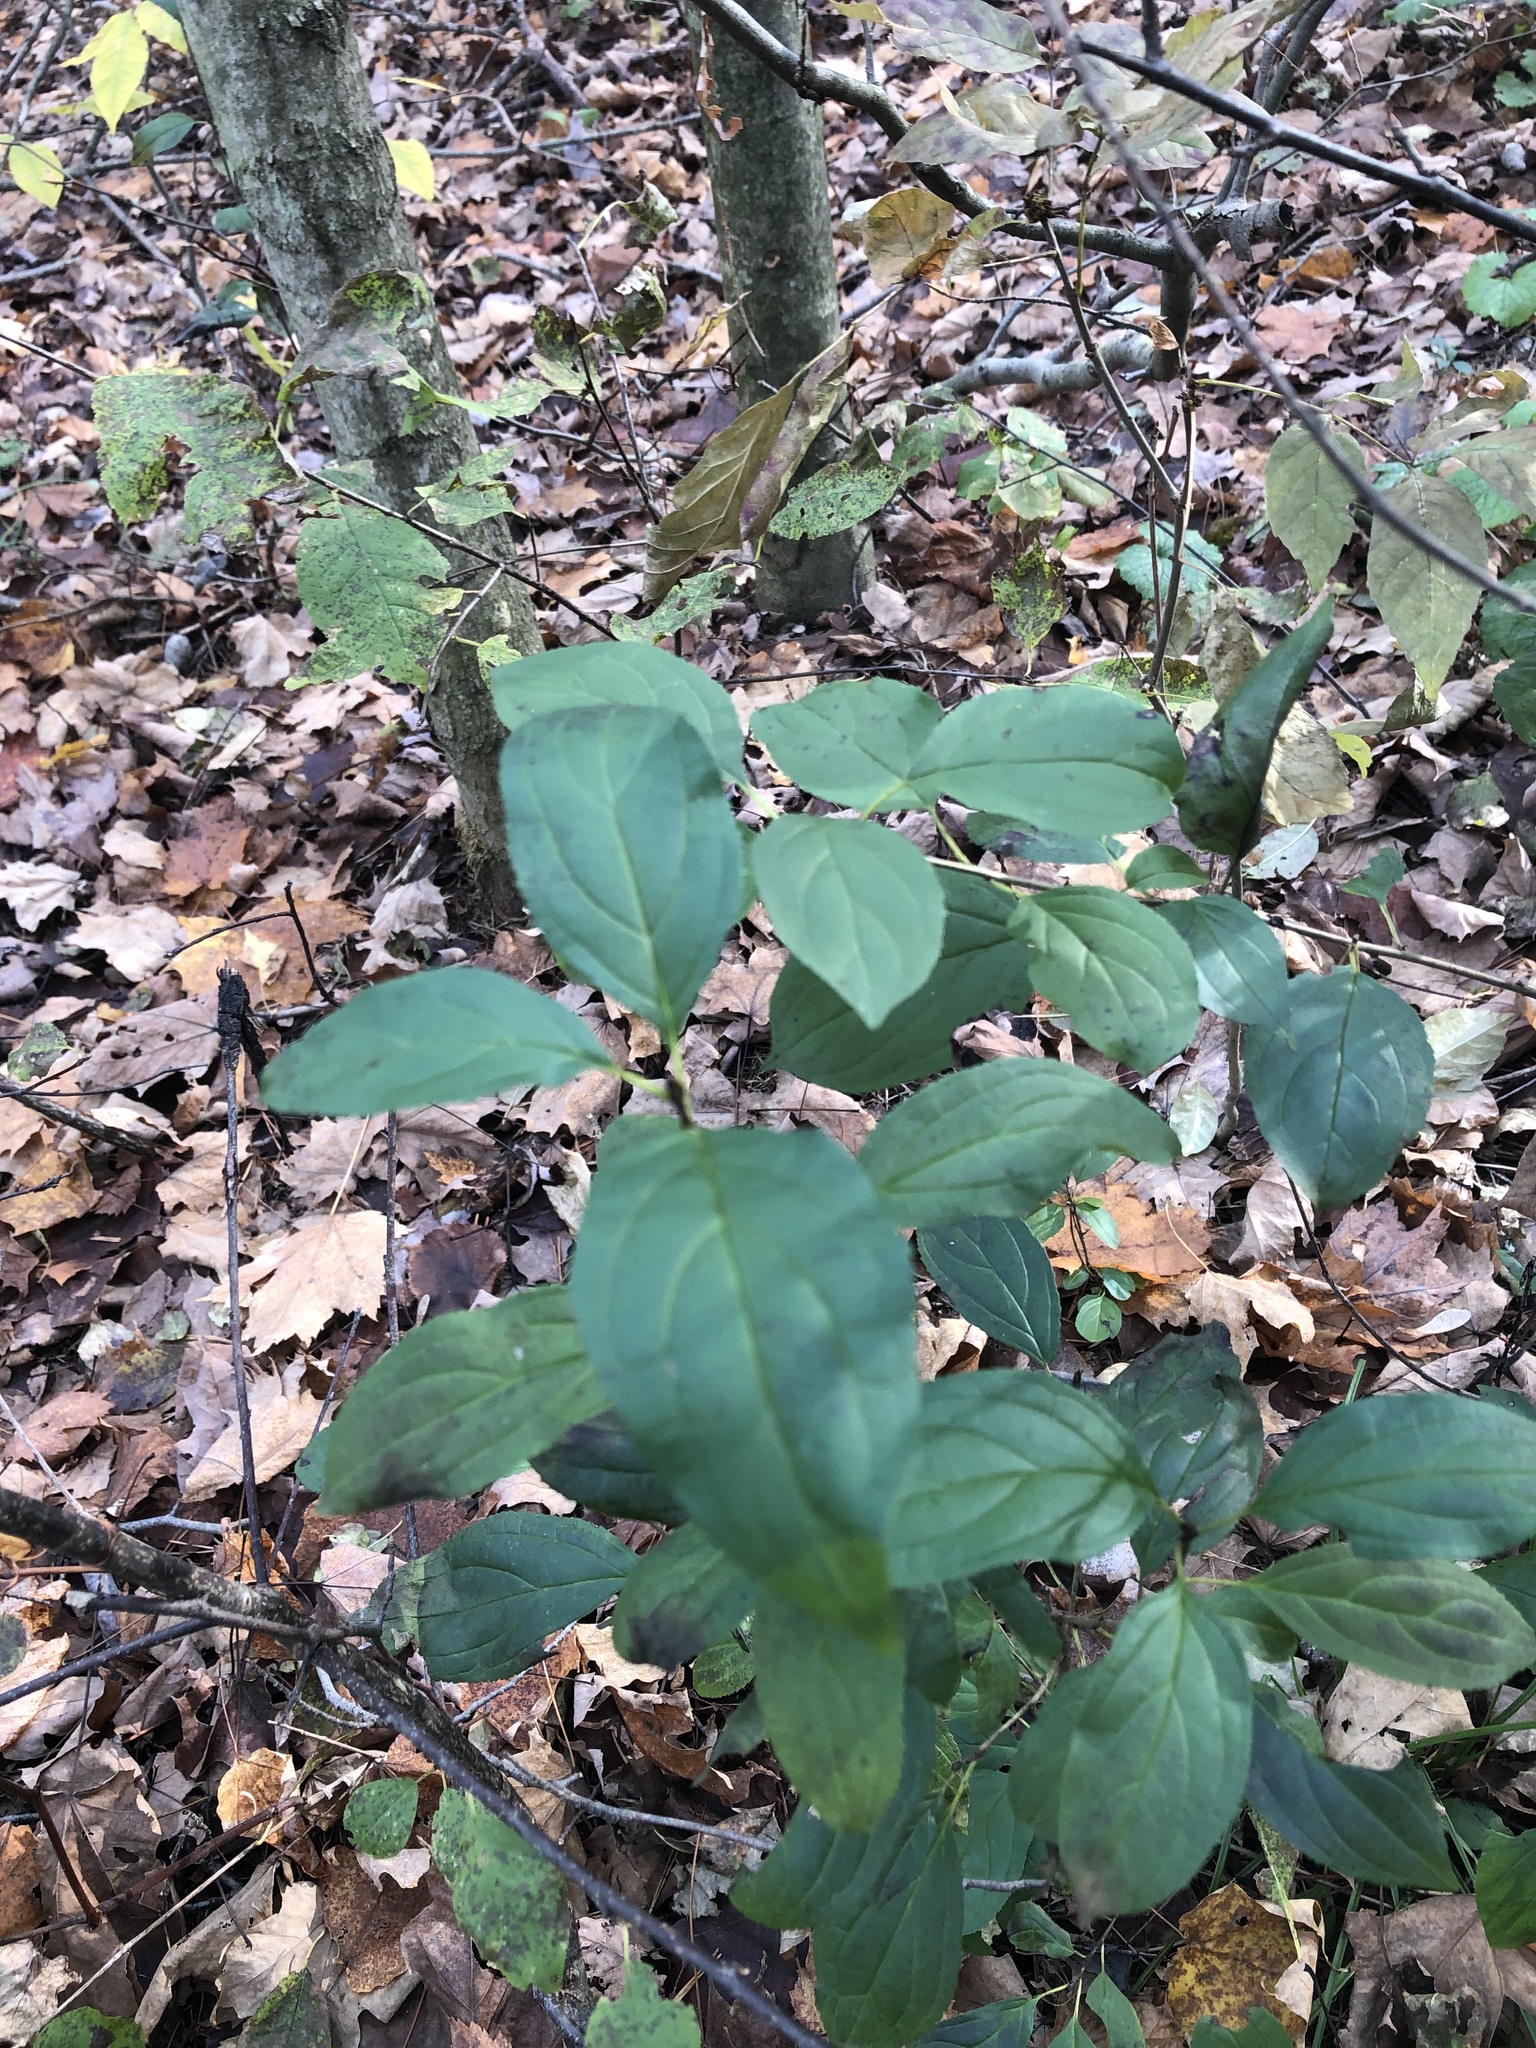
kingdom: Plantae
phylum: Tracheophyta
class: Magnoliopsida
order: Rosales
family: Rhamnaceae
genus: Rhamnus
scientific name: Rhamnus cathartica
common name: Common buckthorn
